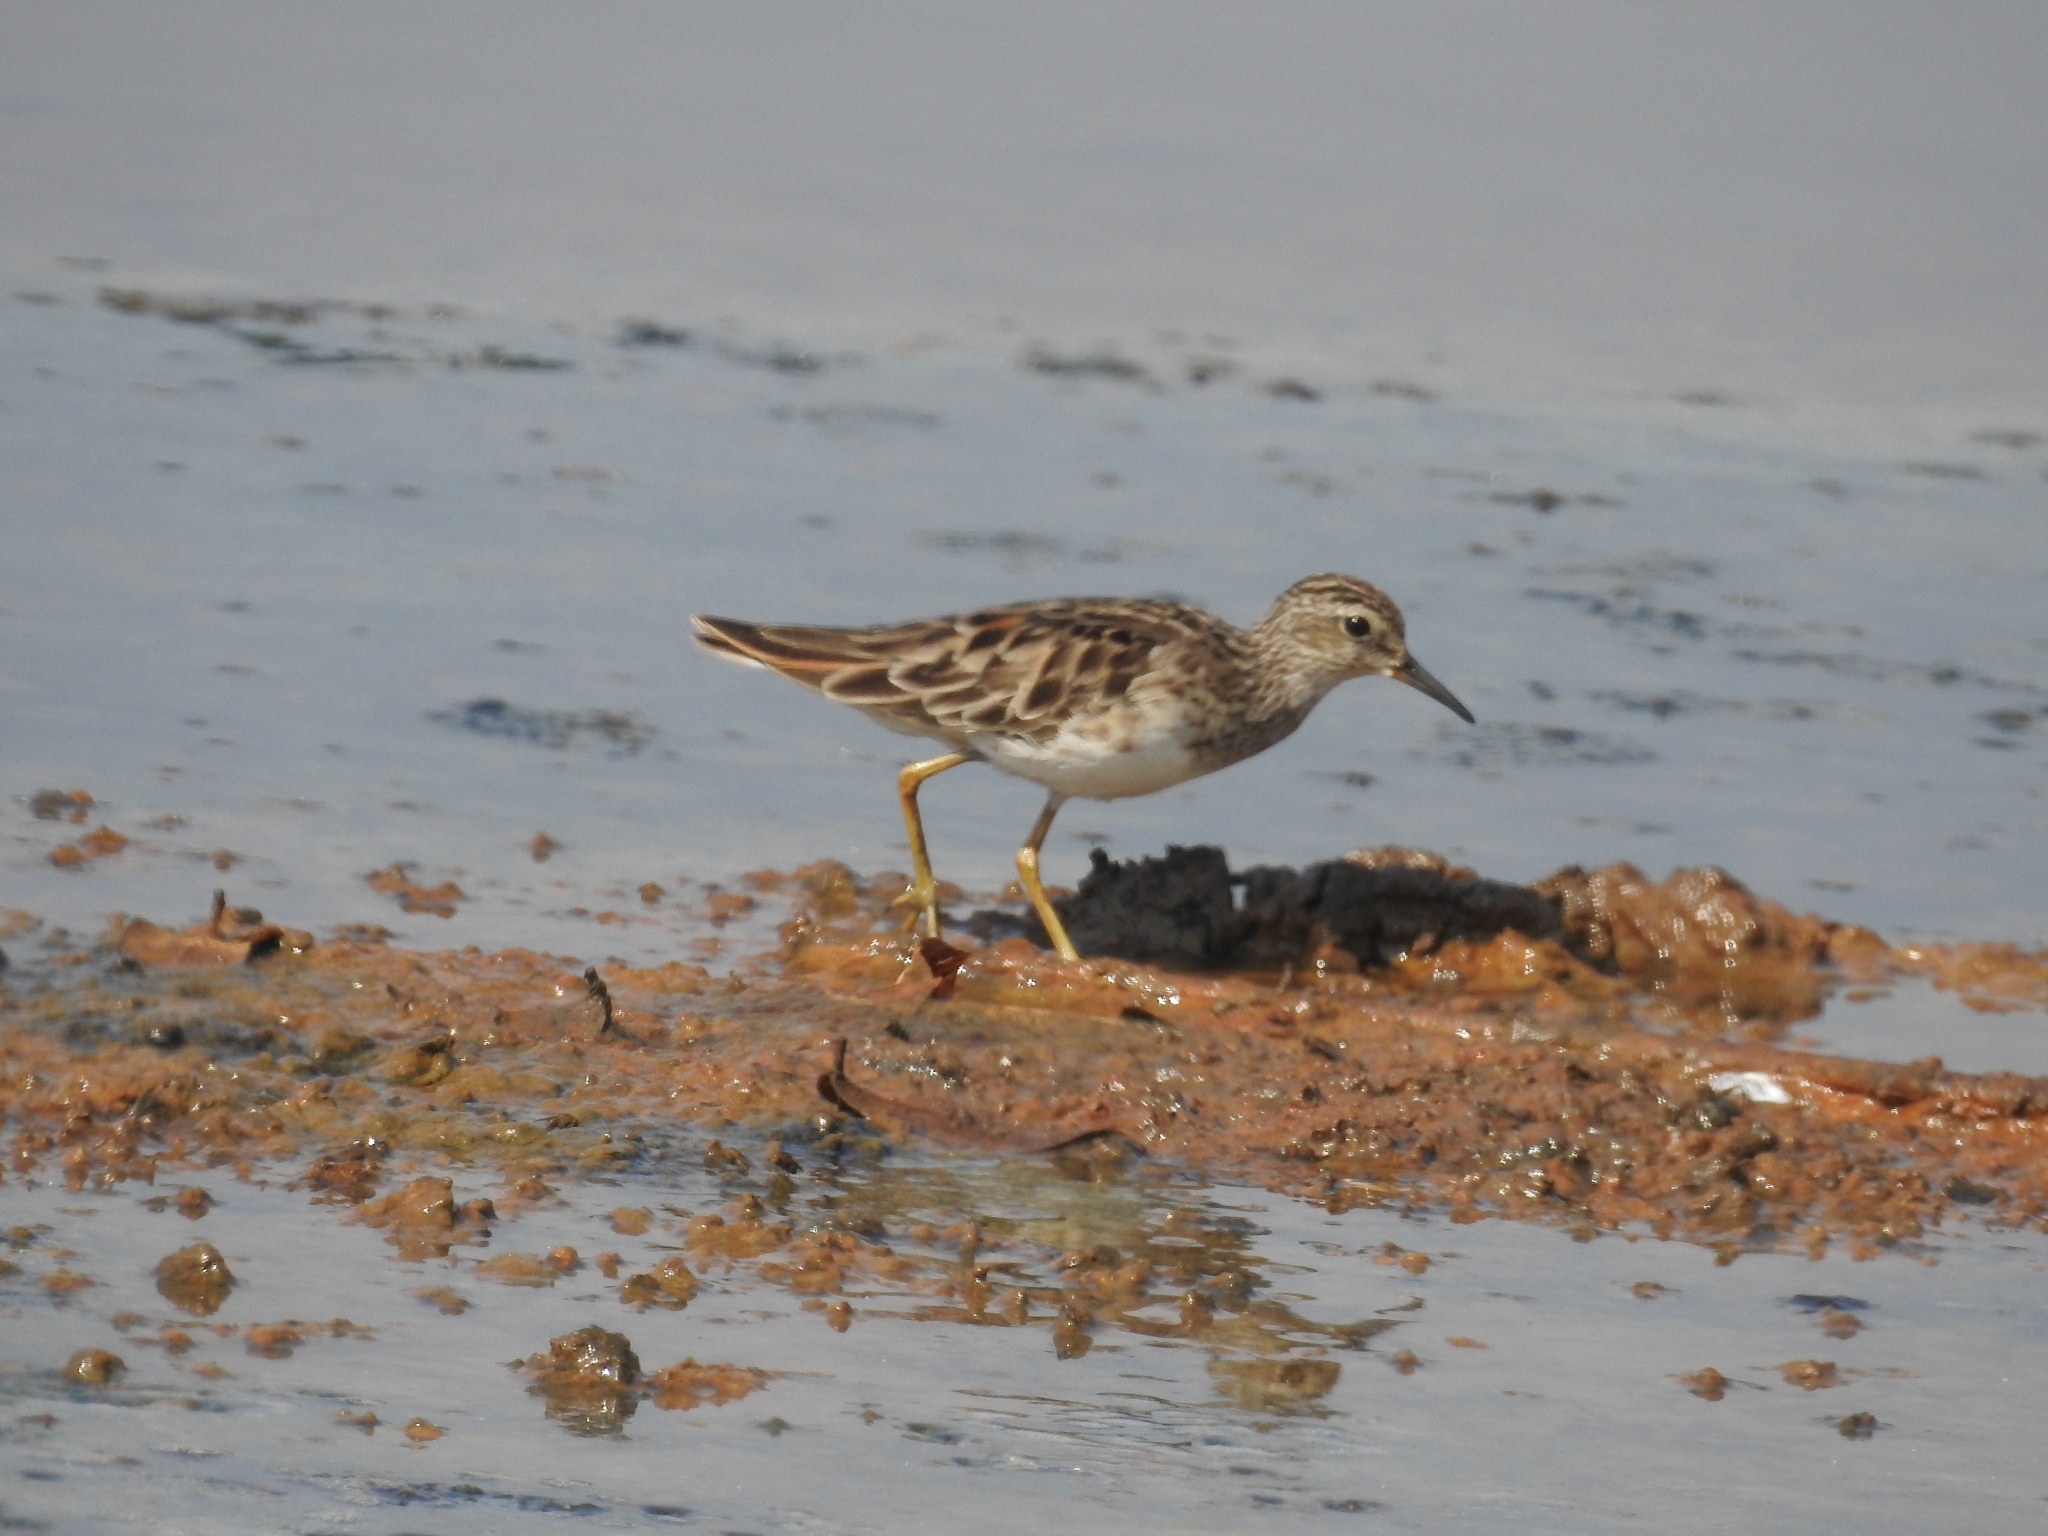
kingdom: Animalia
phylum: Chordata
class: Aves
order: Charadriiformes
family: Scolopacidae
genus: Calidris
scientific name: Calidris subminuta
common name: Long-toed stint
